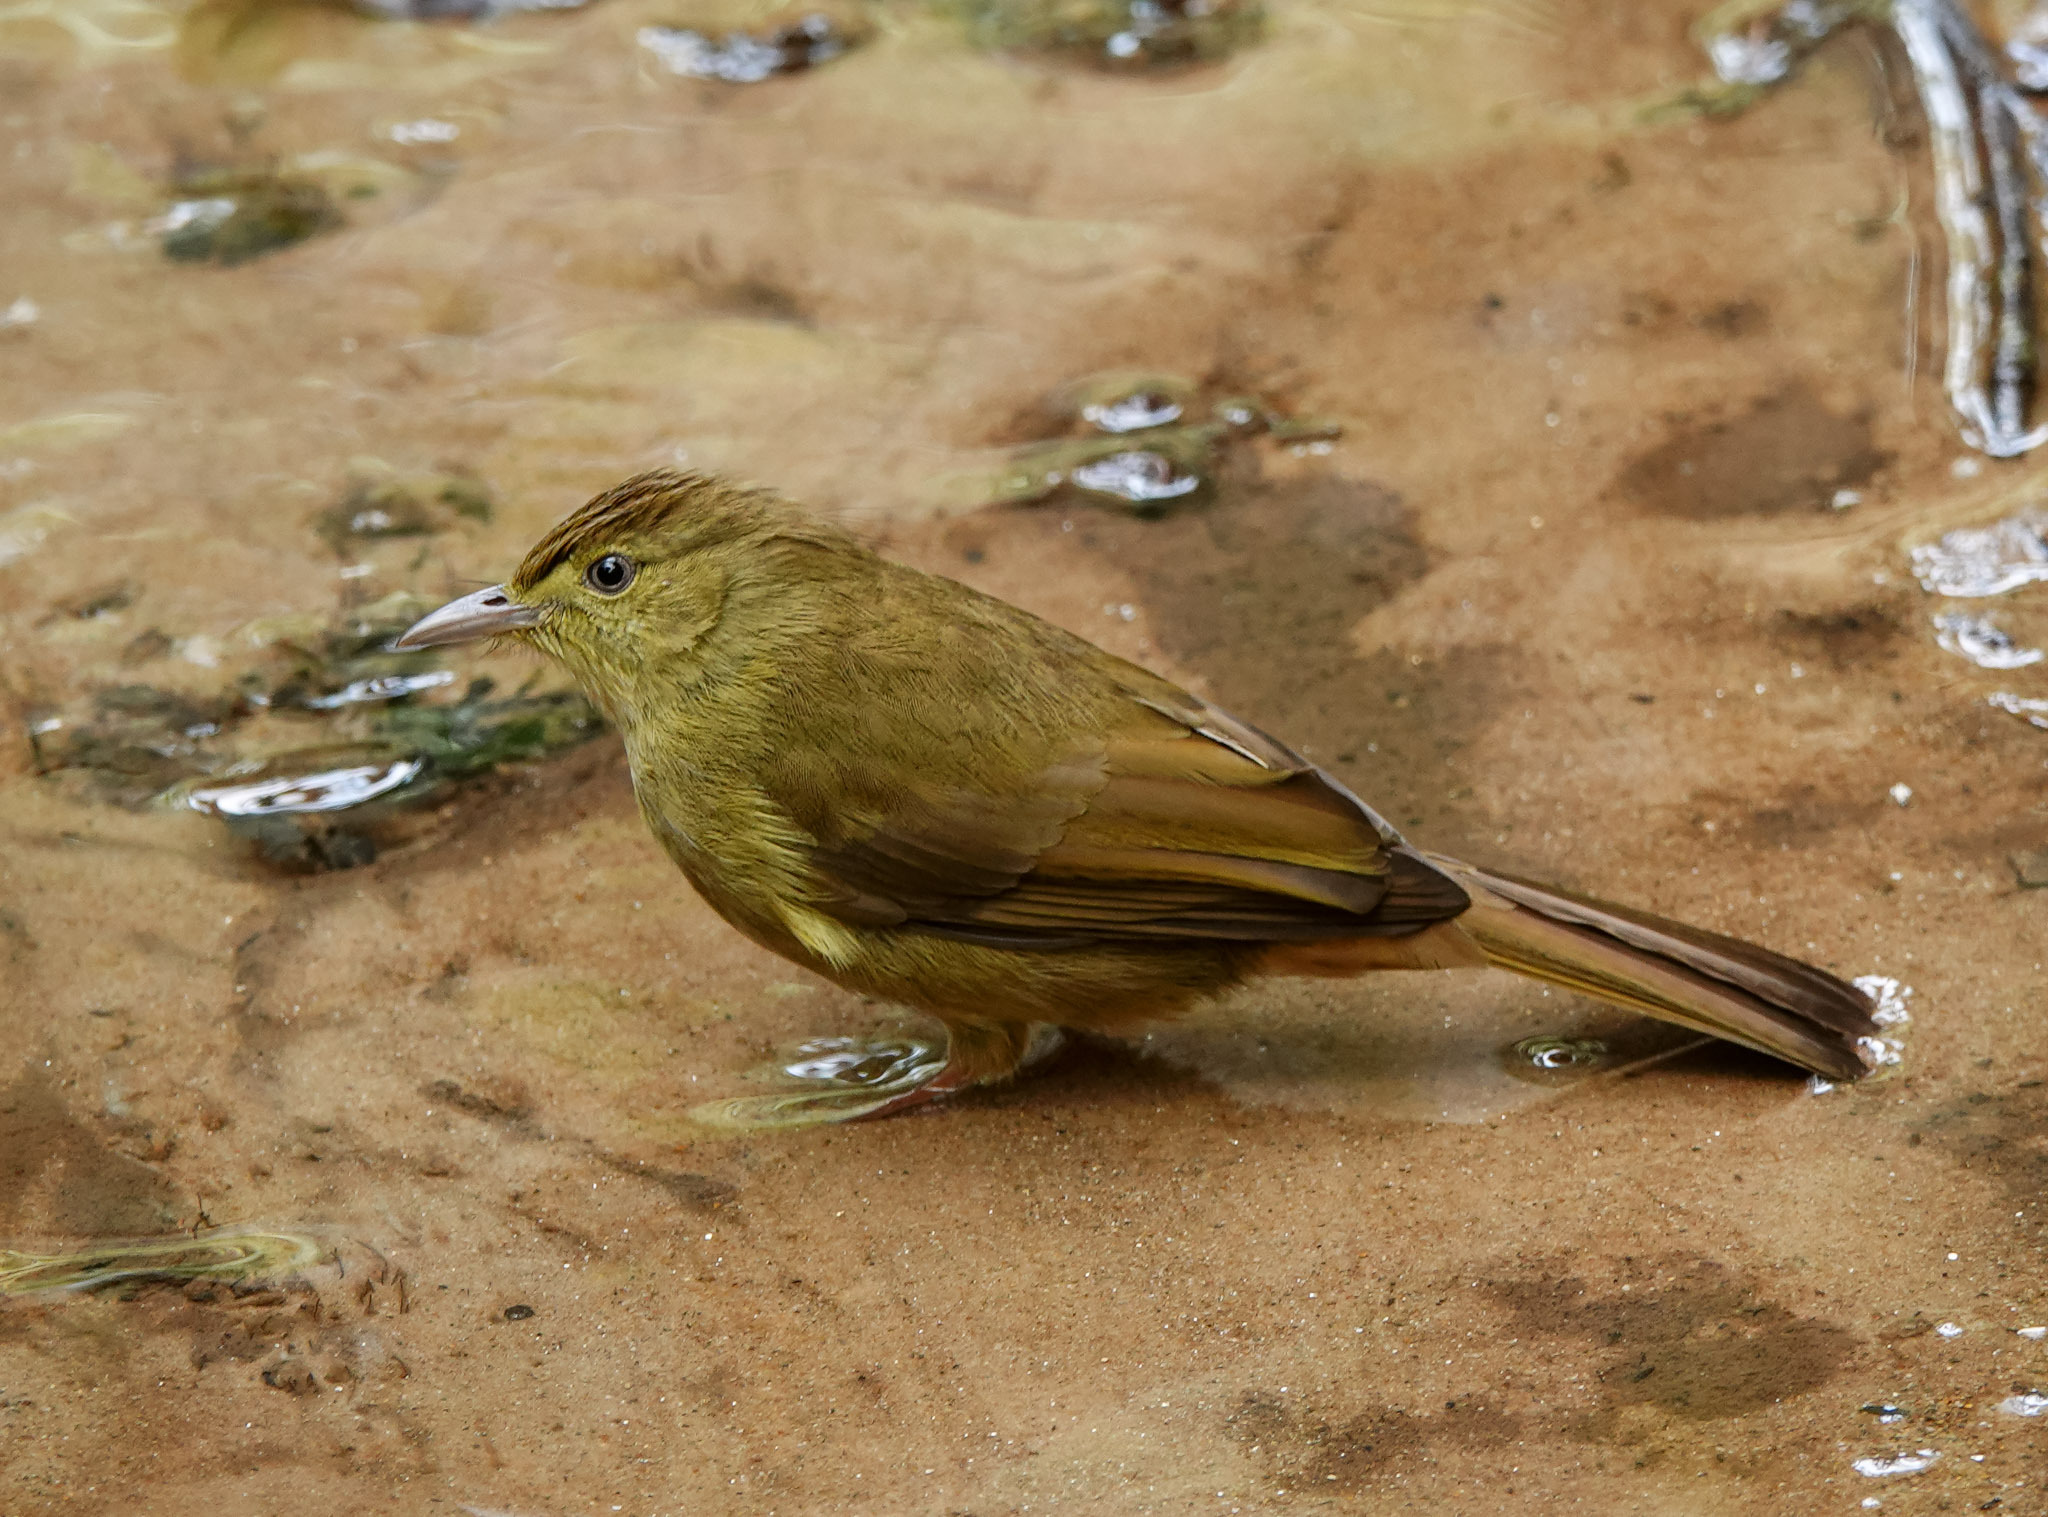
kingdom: Animalia
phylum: Chordata
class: Aves
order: Passeriformes
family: Pycnonotidae
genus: Iole
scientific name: Iole virescens
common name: Olive bulbul
